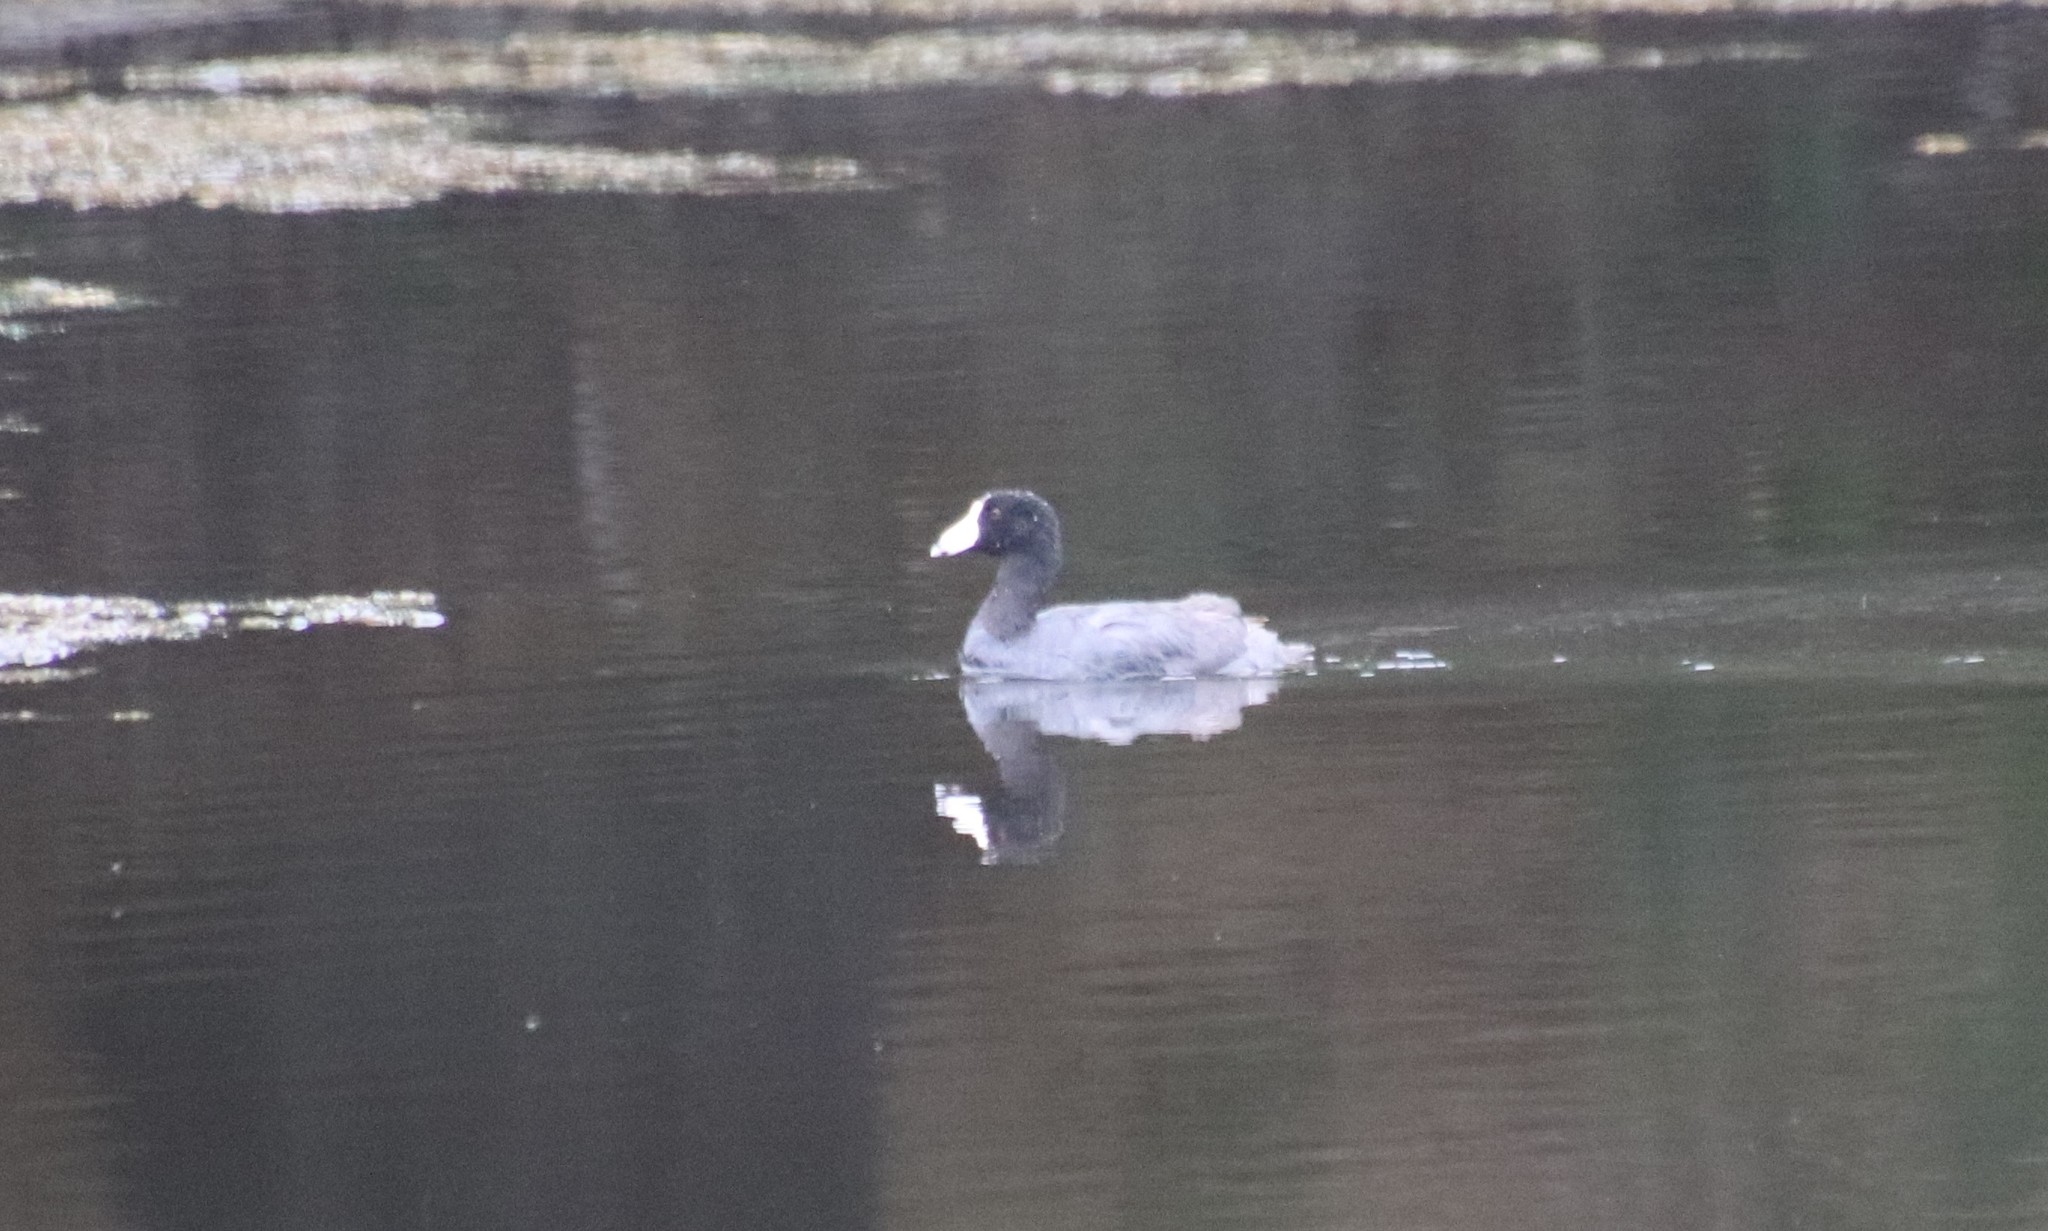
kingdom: Animalia
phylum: Chordata
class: Aves
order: Gruiformes
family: Rallidae
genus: Fulica
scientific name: Fulica americana
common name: American coot
